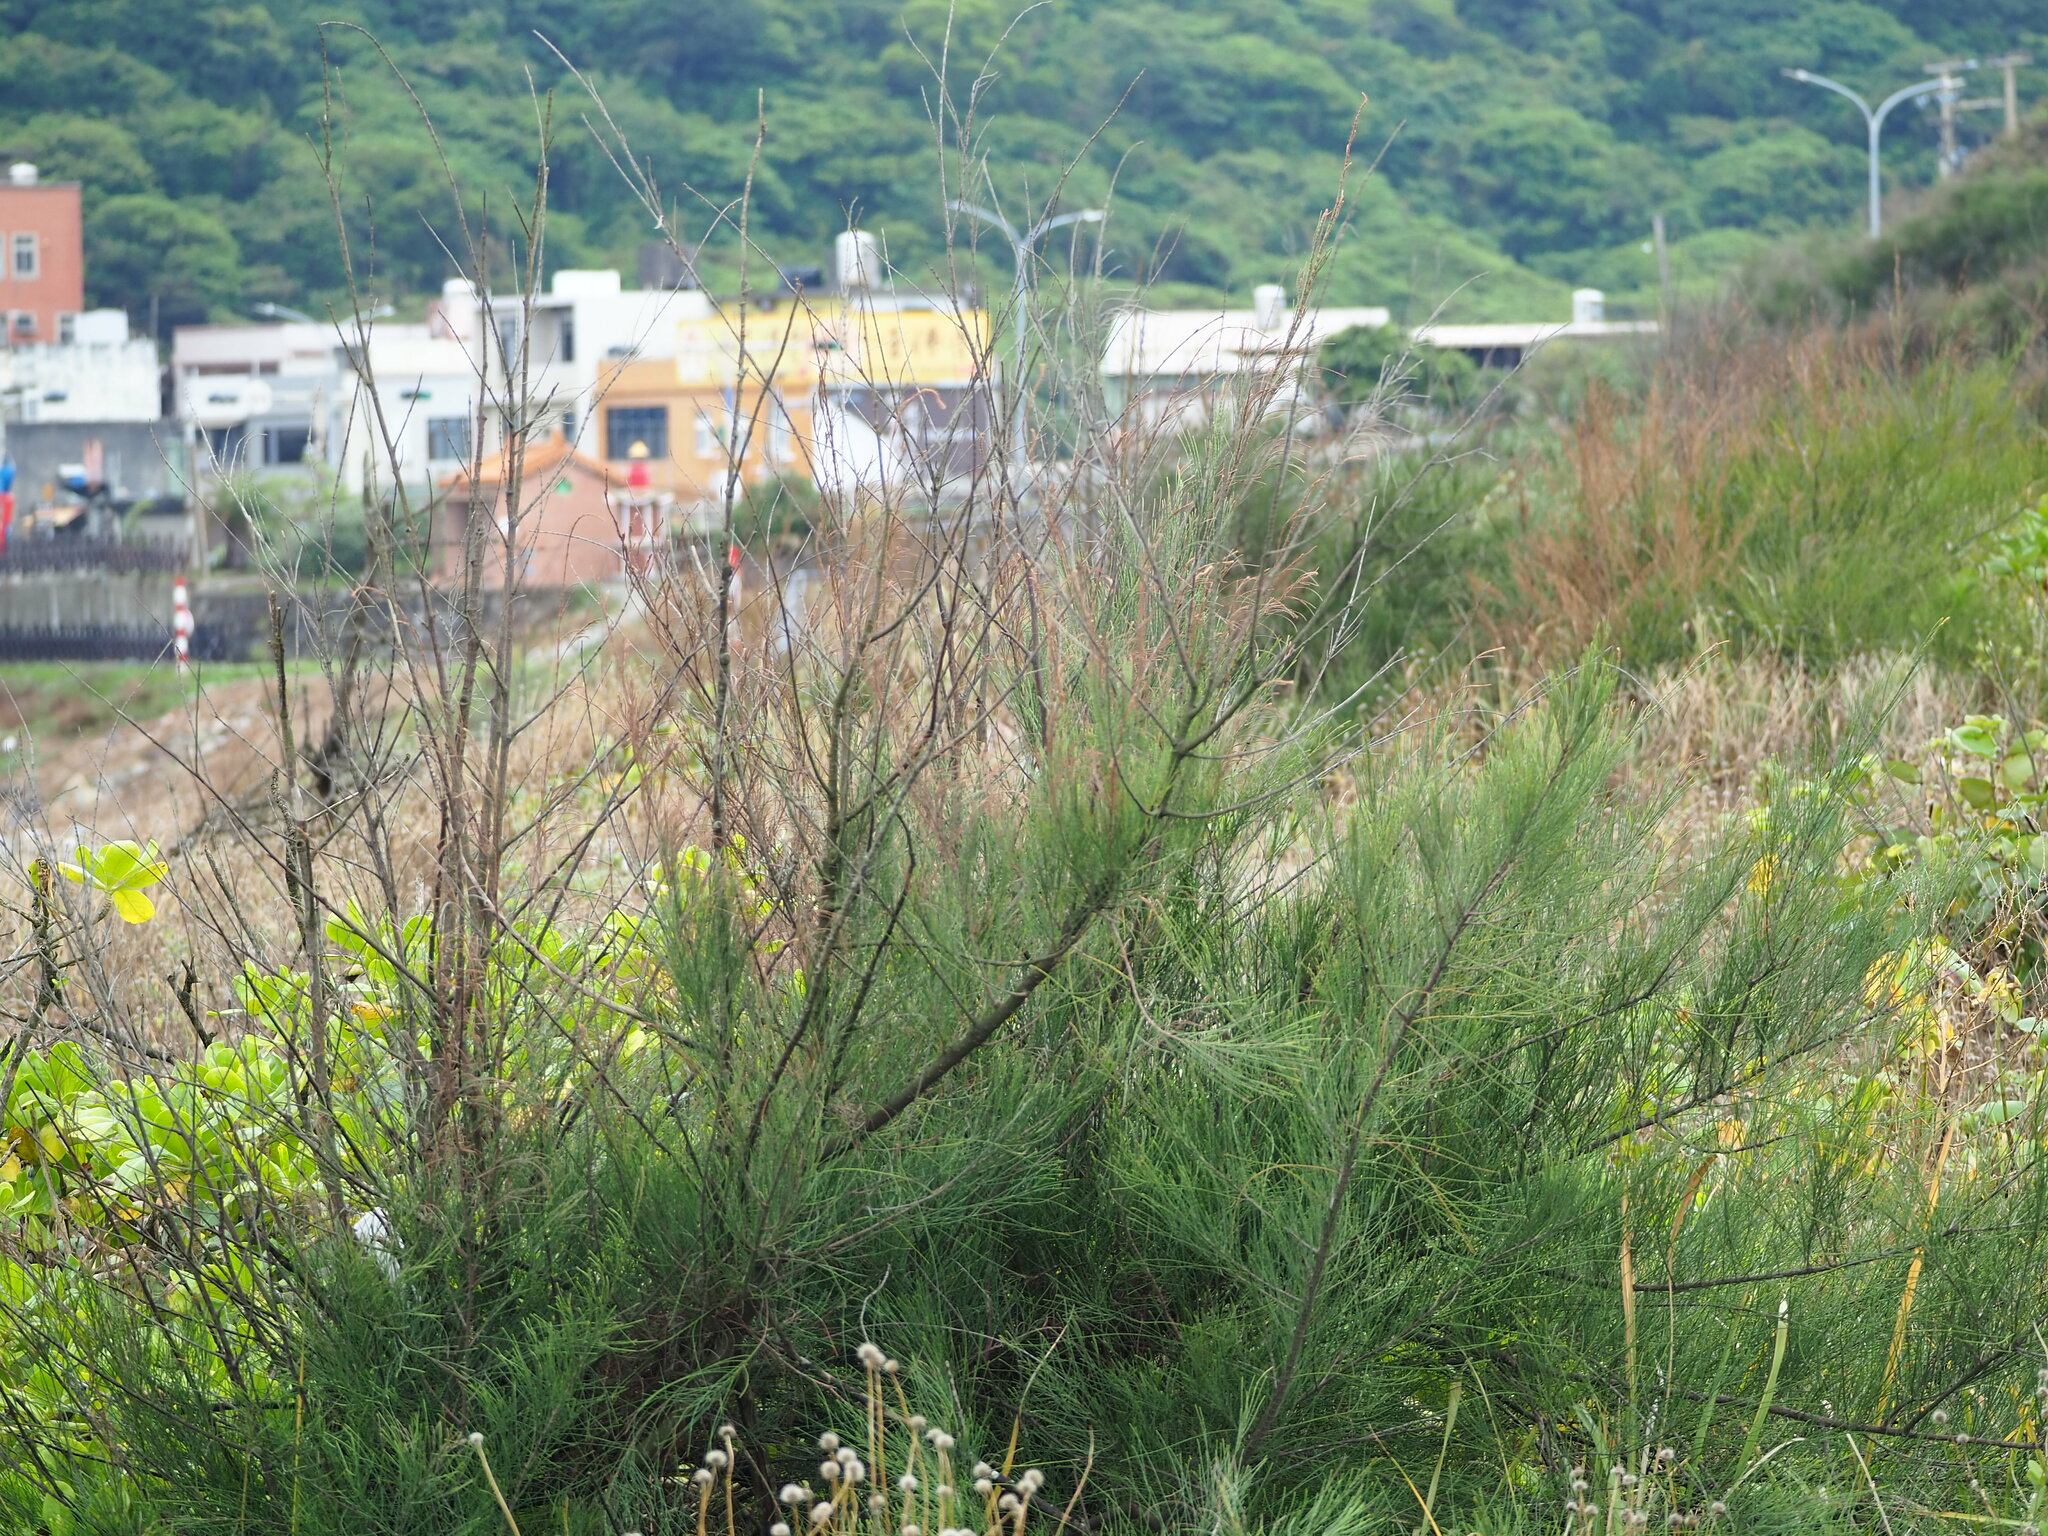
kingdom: Plantae
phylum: Tracheophyta
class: Magnoliopsida
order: Fagales
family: Casuarinaceae
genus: Casuarina
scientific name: Casuarina equisetifolia
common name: Beach sheoak
